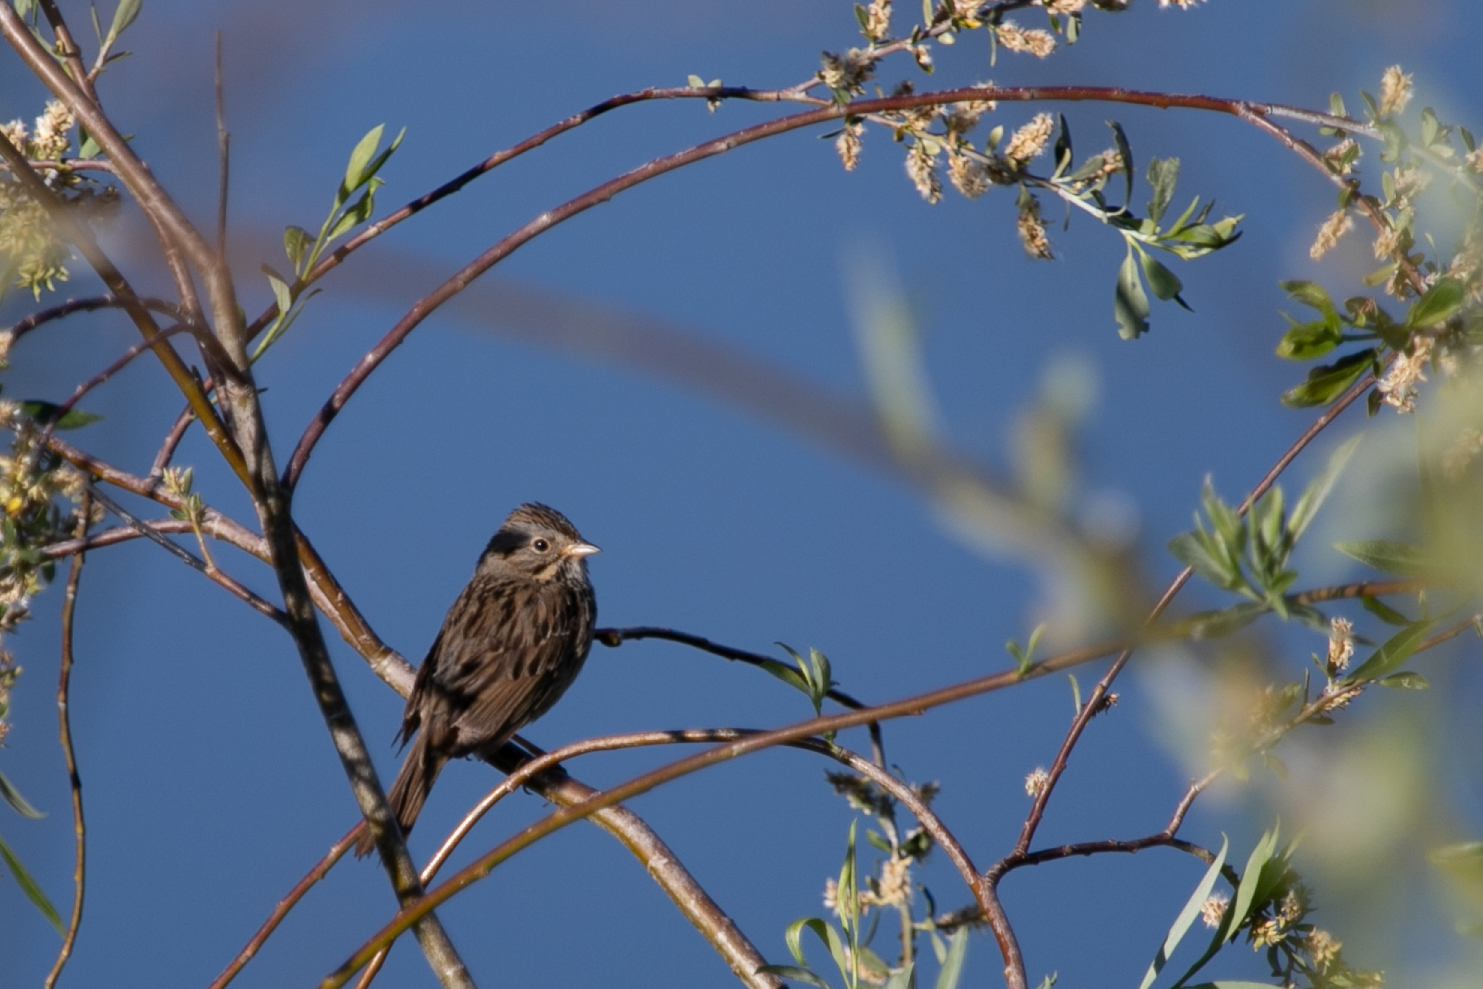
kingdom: Animalia
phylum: Chordata
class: Aves
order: Passeriformes
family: Passerellidae
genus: Melospiza
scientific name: Melospiza lincolnii
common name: Lincoln's sparrow
